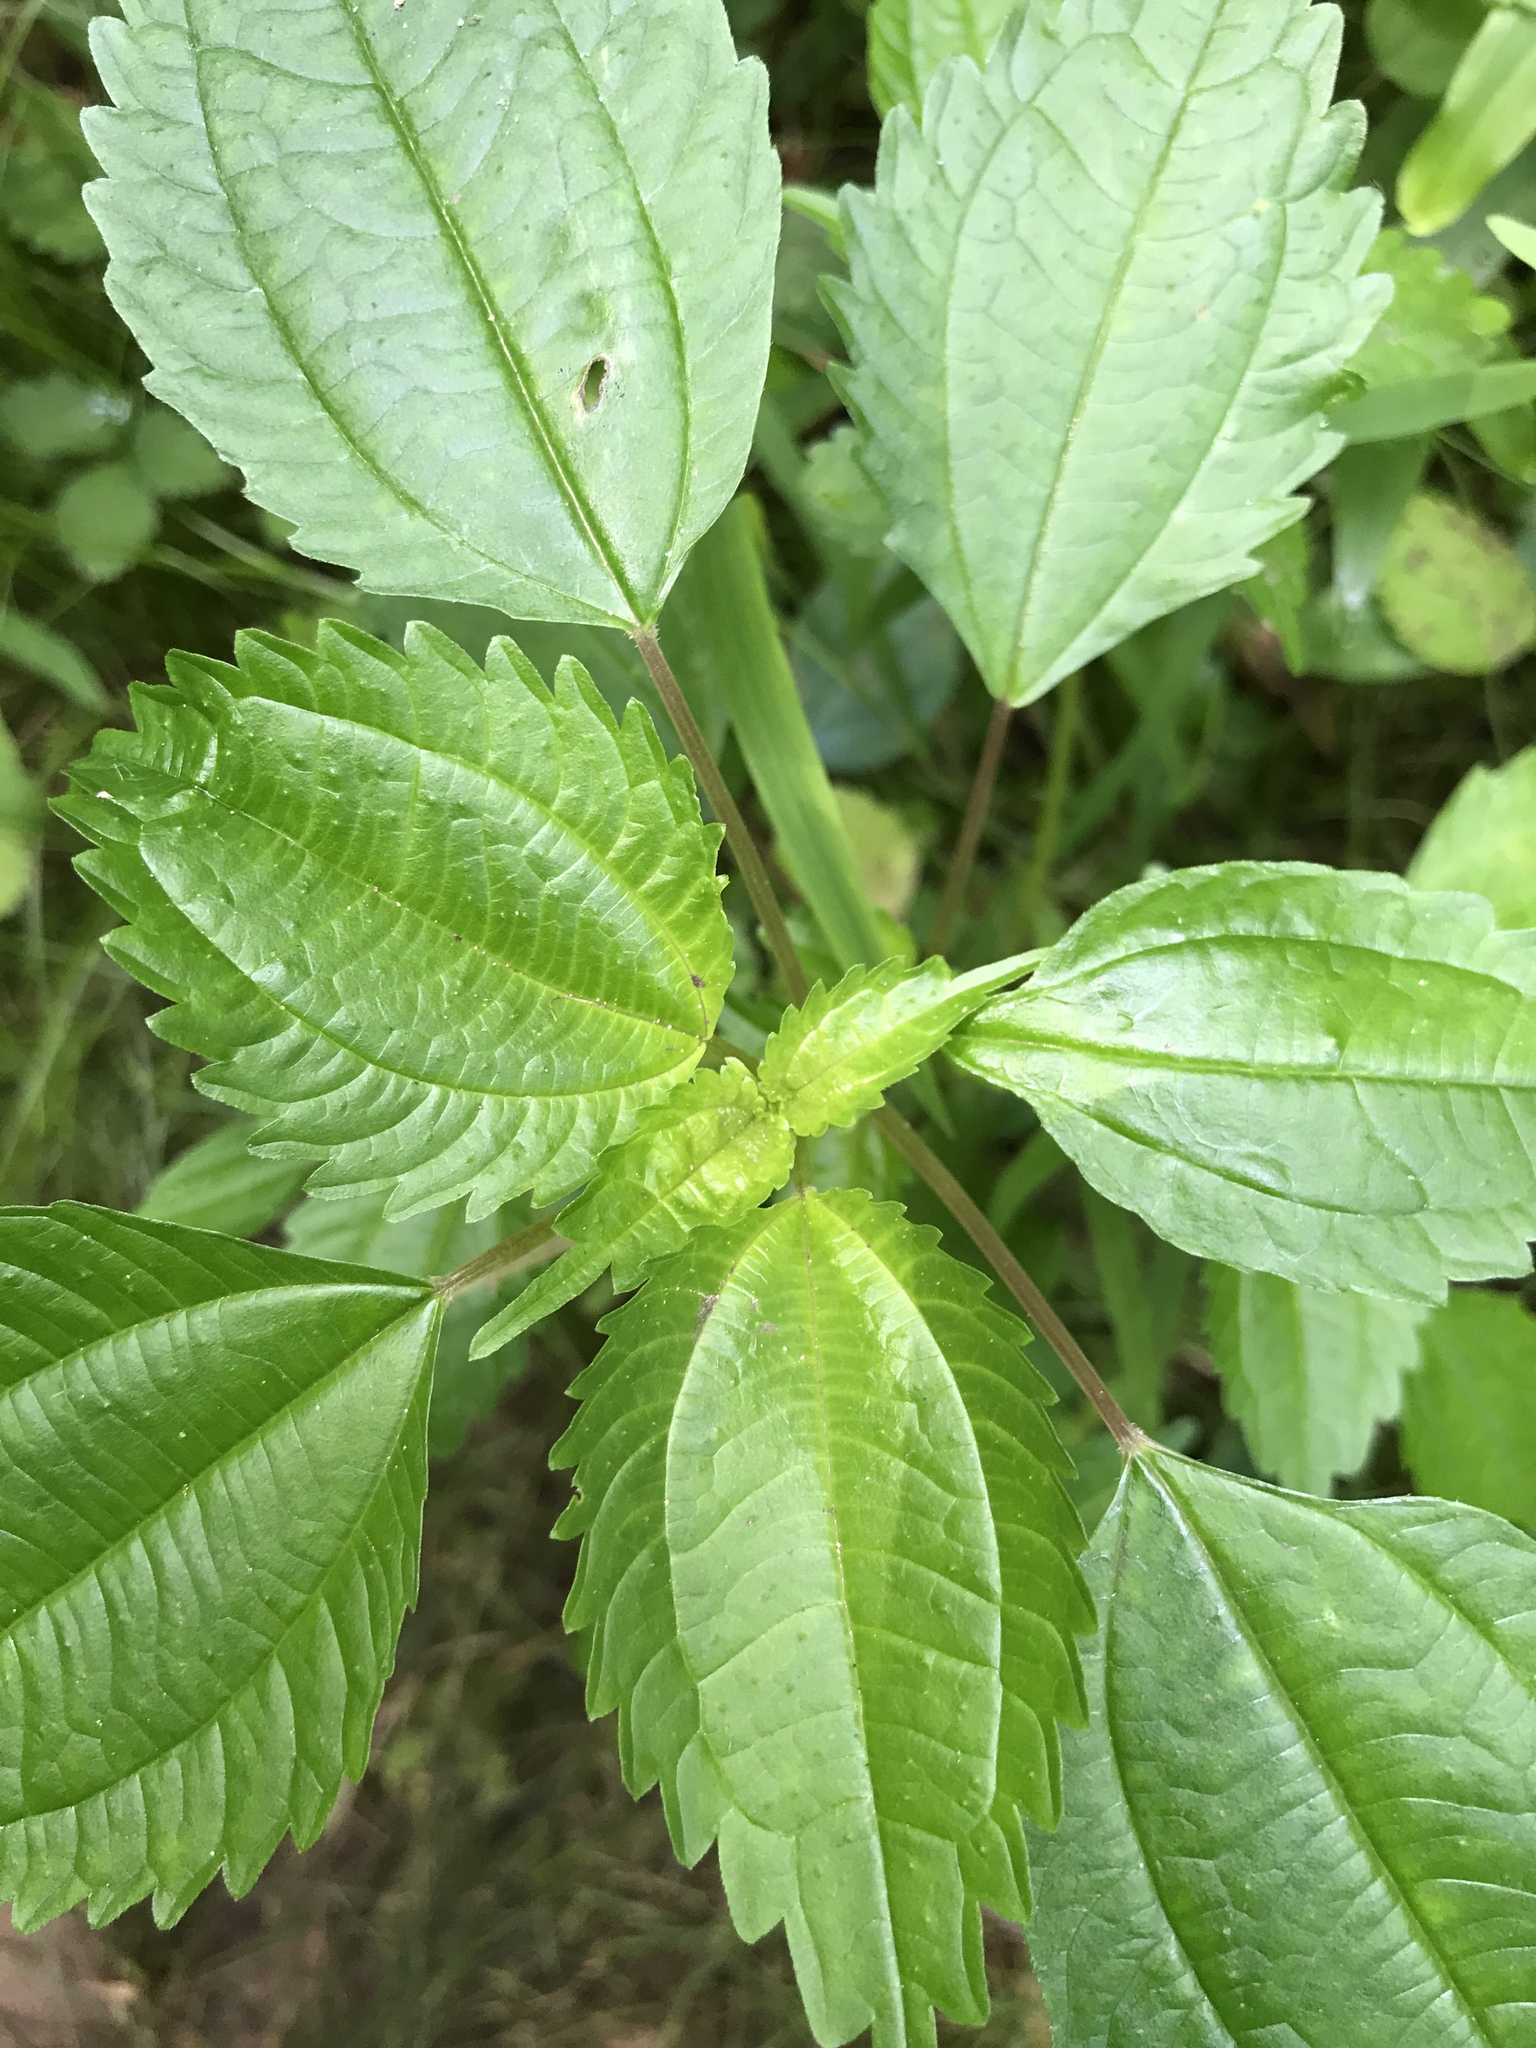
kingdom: Plantae
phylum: Tracheophyta
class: Magnoliopsida
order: Rosales
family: Urticaceae
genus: Pilea
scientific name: Pilea pumila
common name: Clearweed
